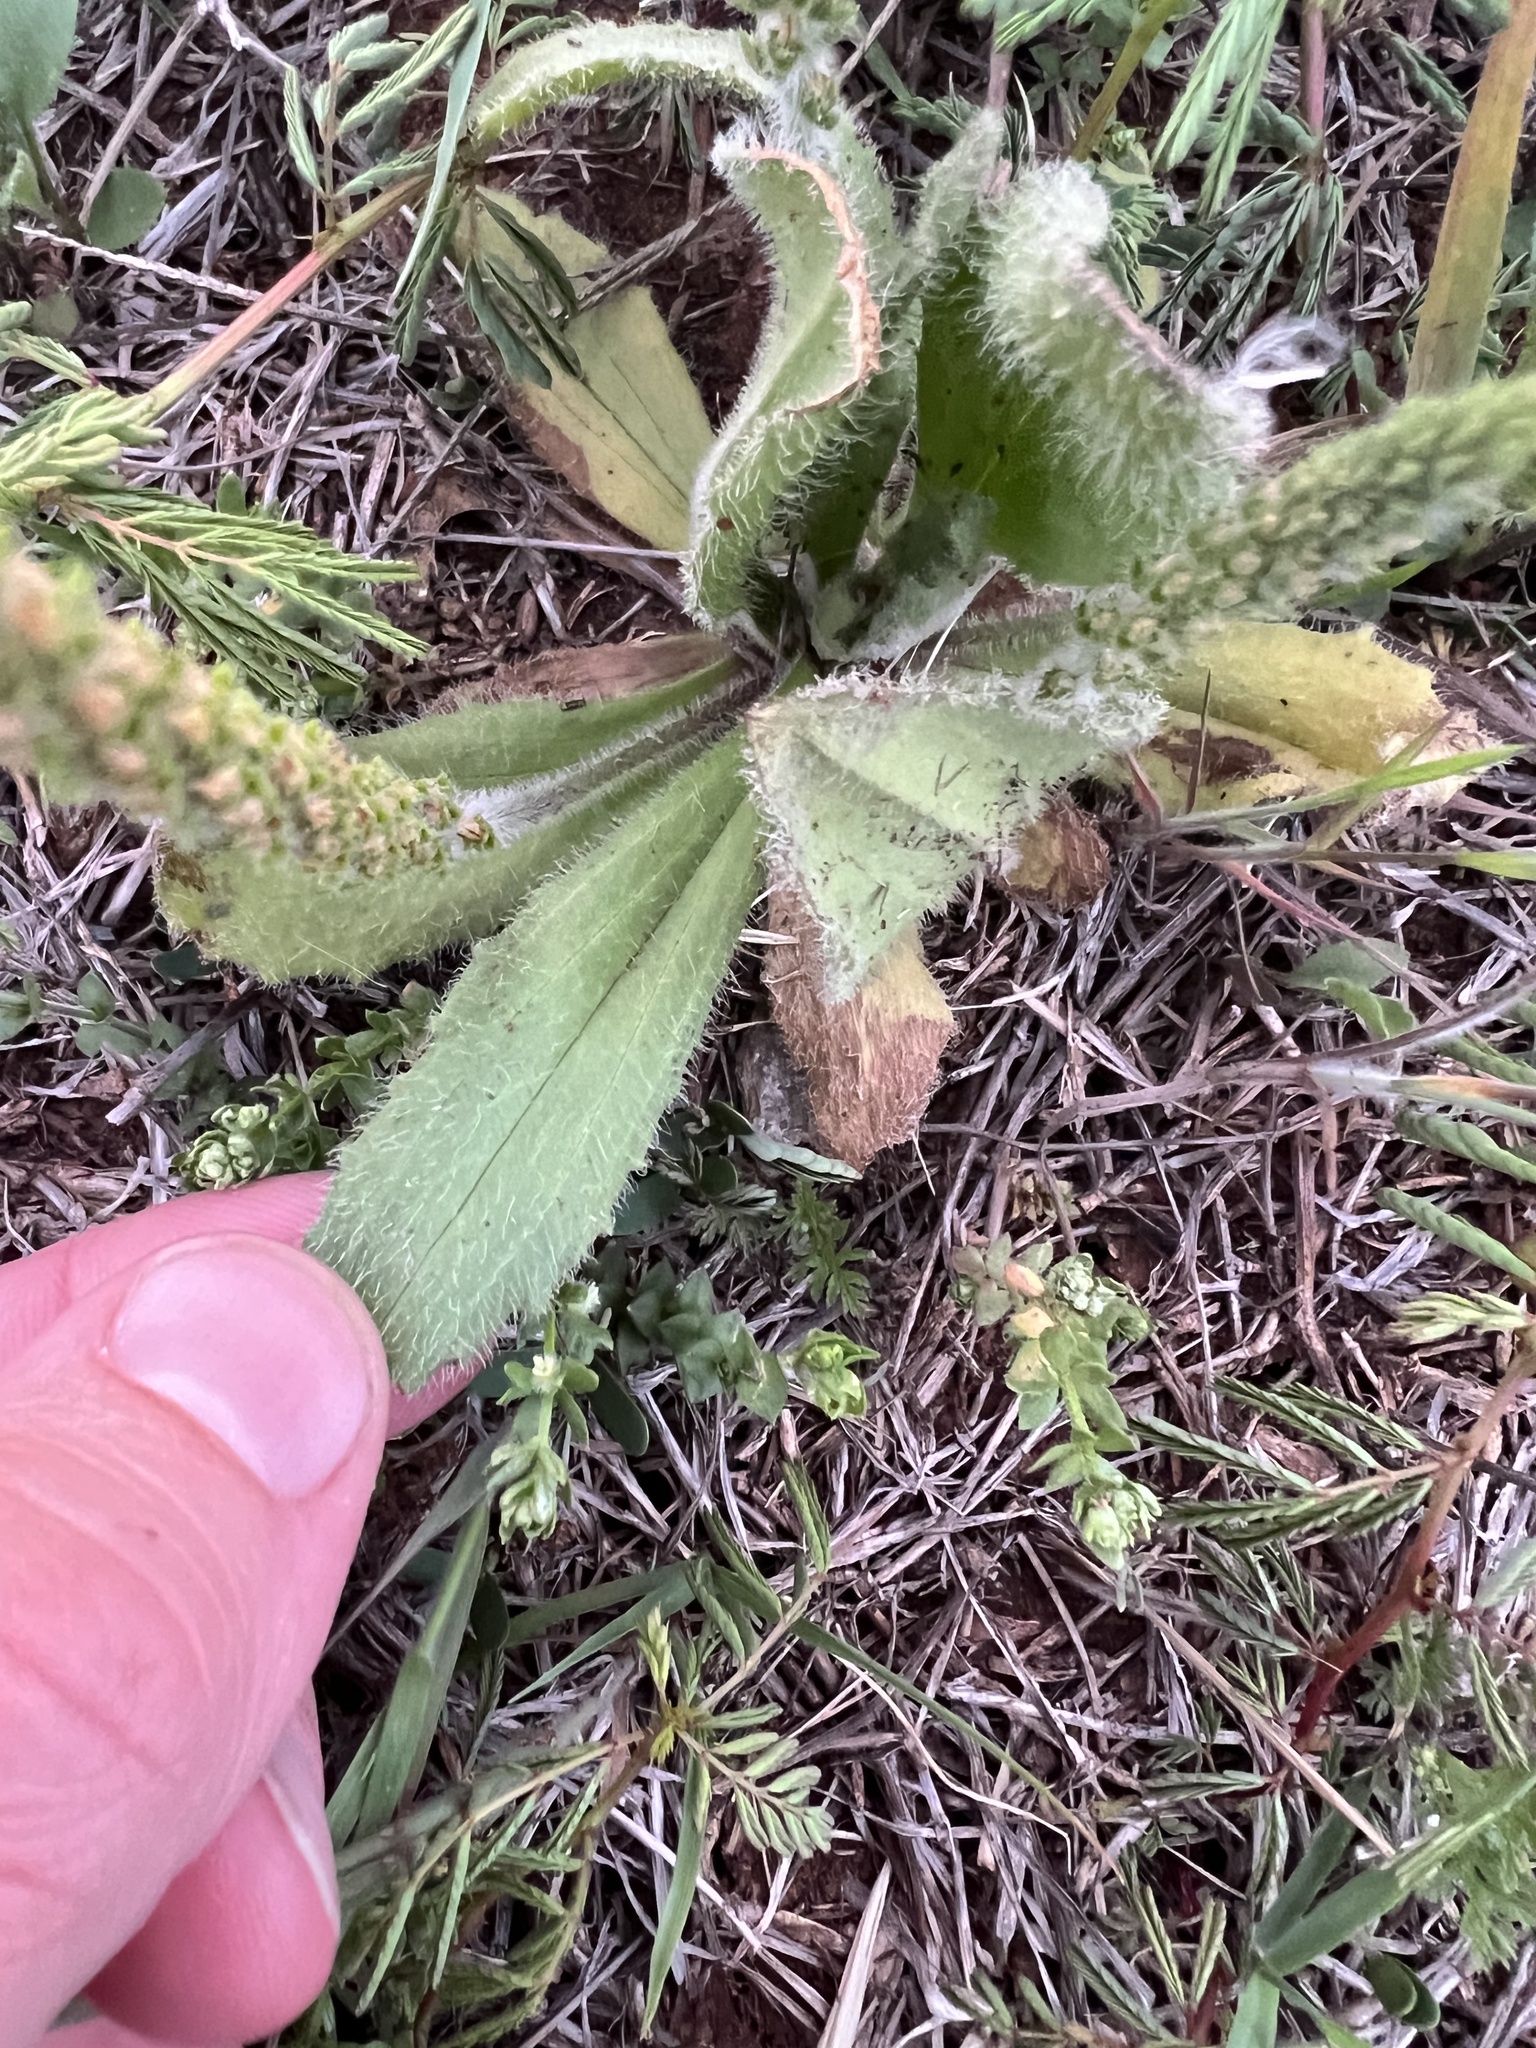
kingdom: Plantae
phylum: Tracheophyta
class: Magnoliopsida
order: Lamiales
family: Plantaginaceae
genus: Plantago
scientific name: Plantago rhodosperma
